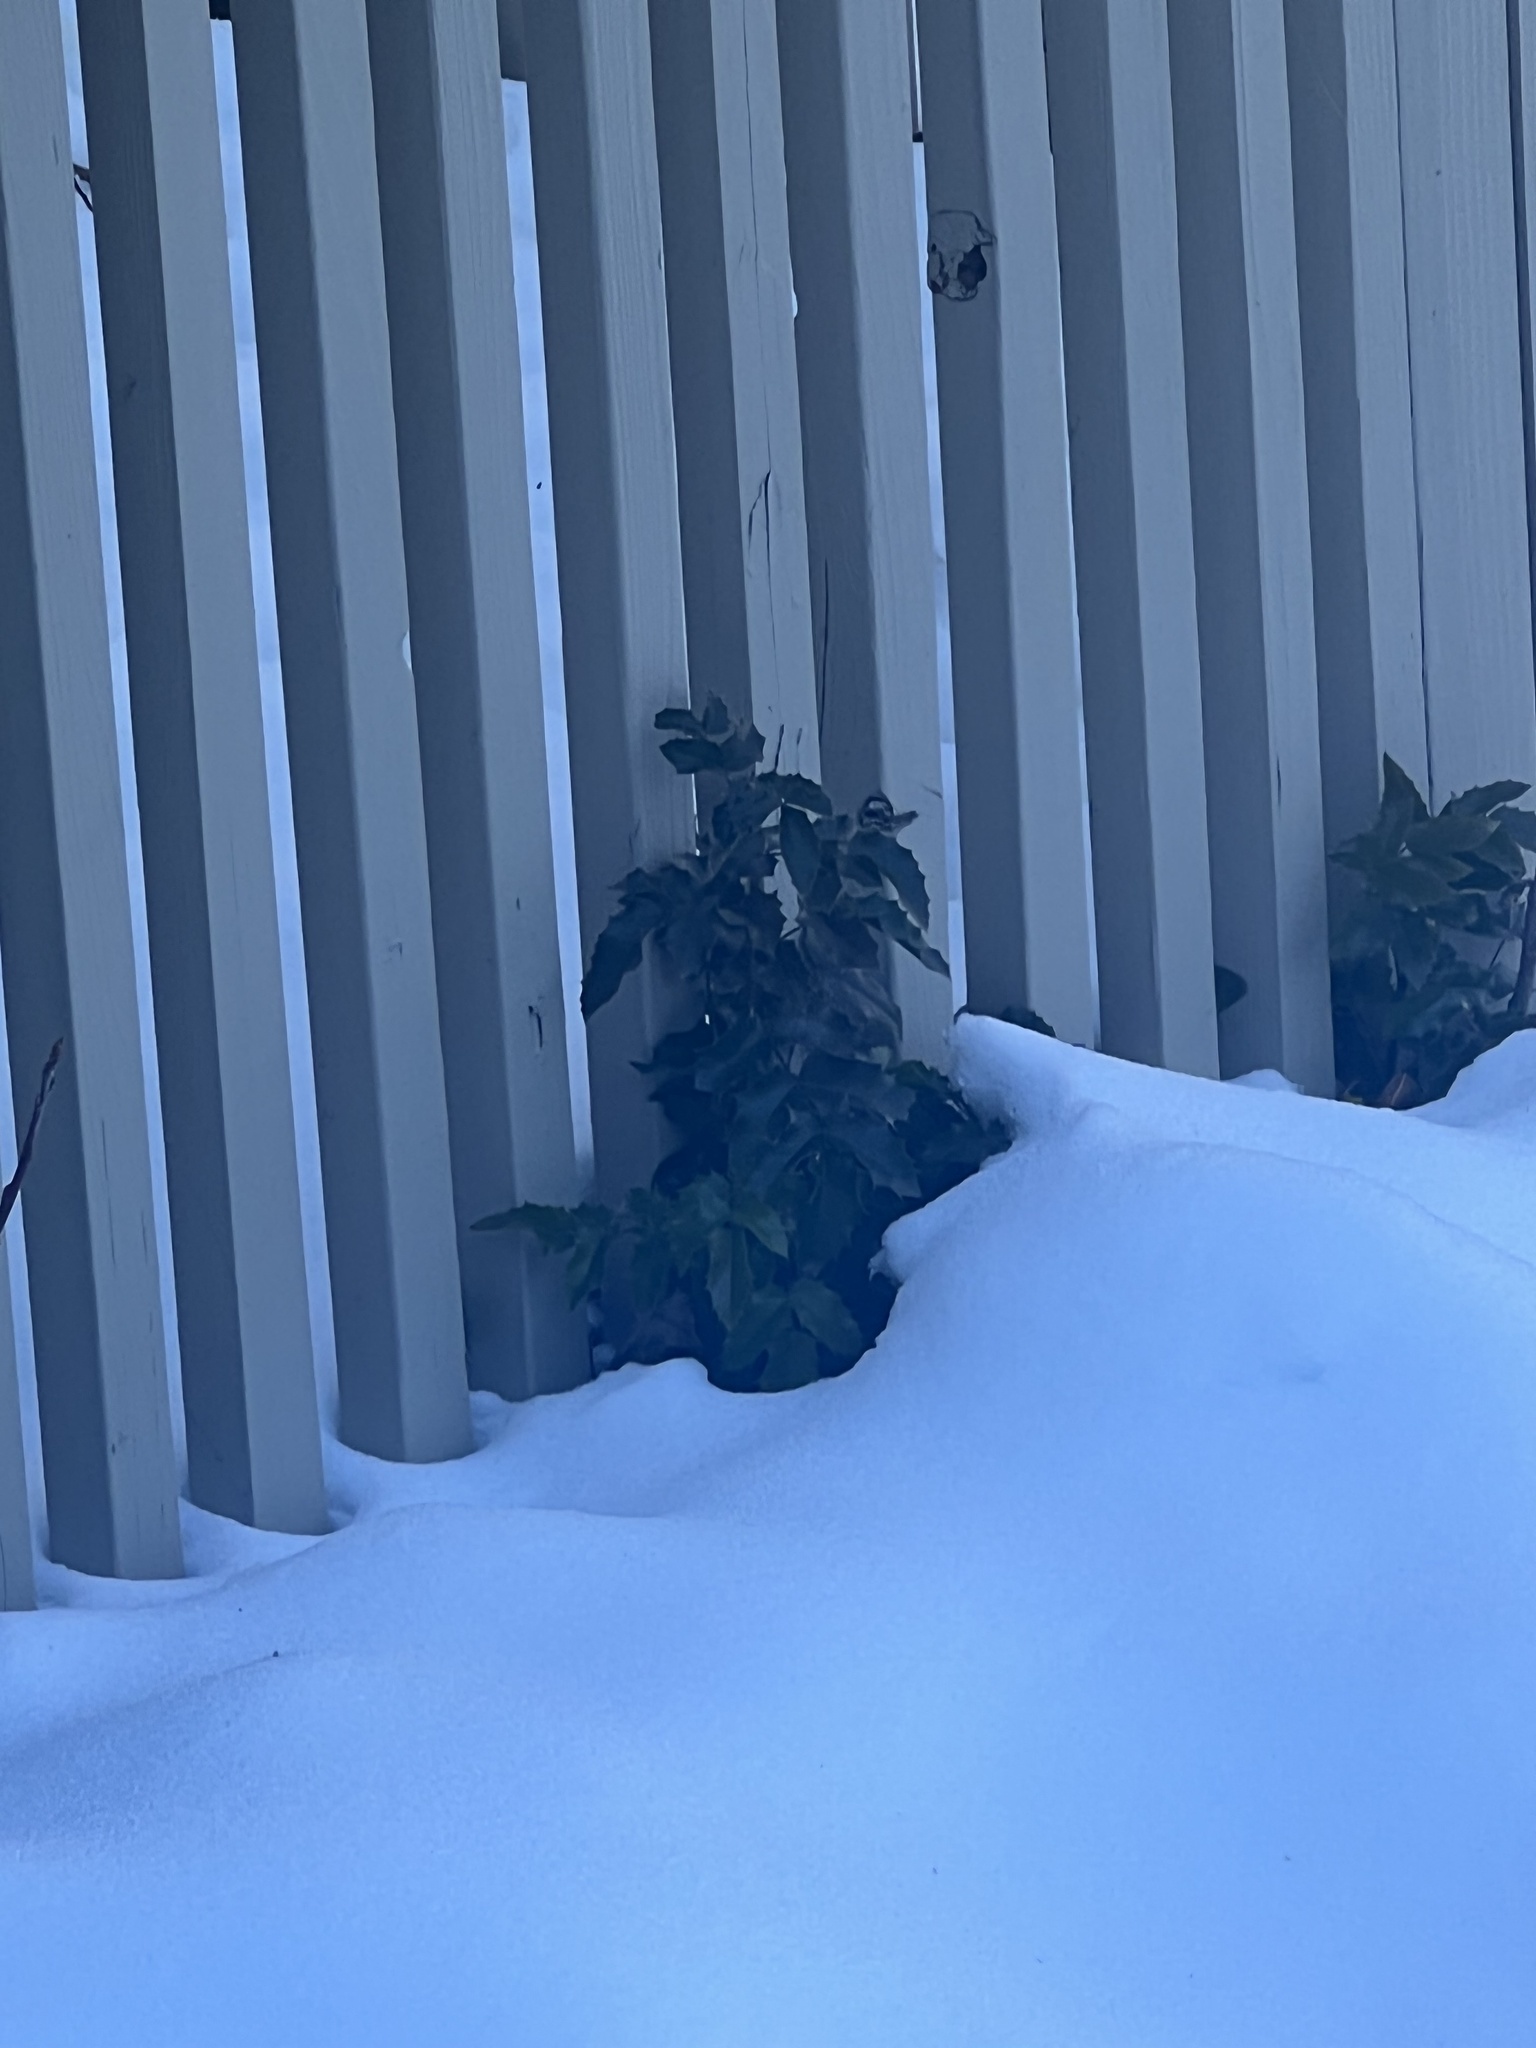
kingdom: Plantae
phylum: Tracheophyta
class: Magnoliopsida
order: Ranunculales
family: Berberidaceae
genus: Mahonia
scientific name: Mahonia aquifolium
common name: Oregon-grape
